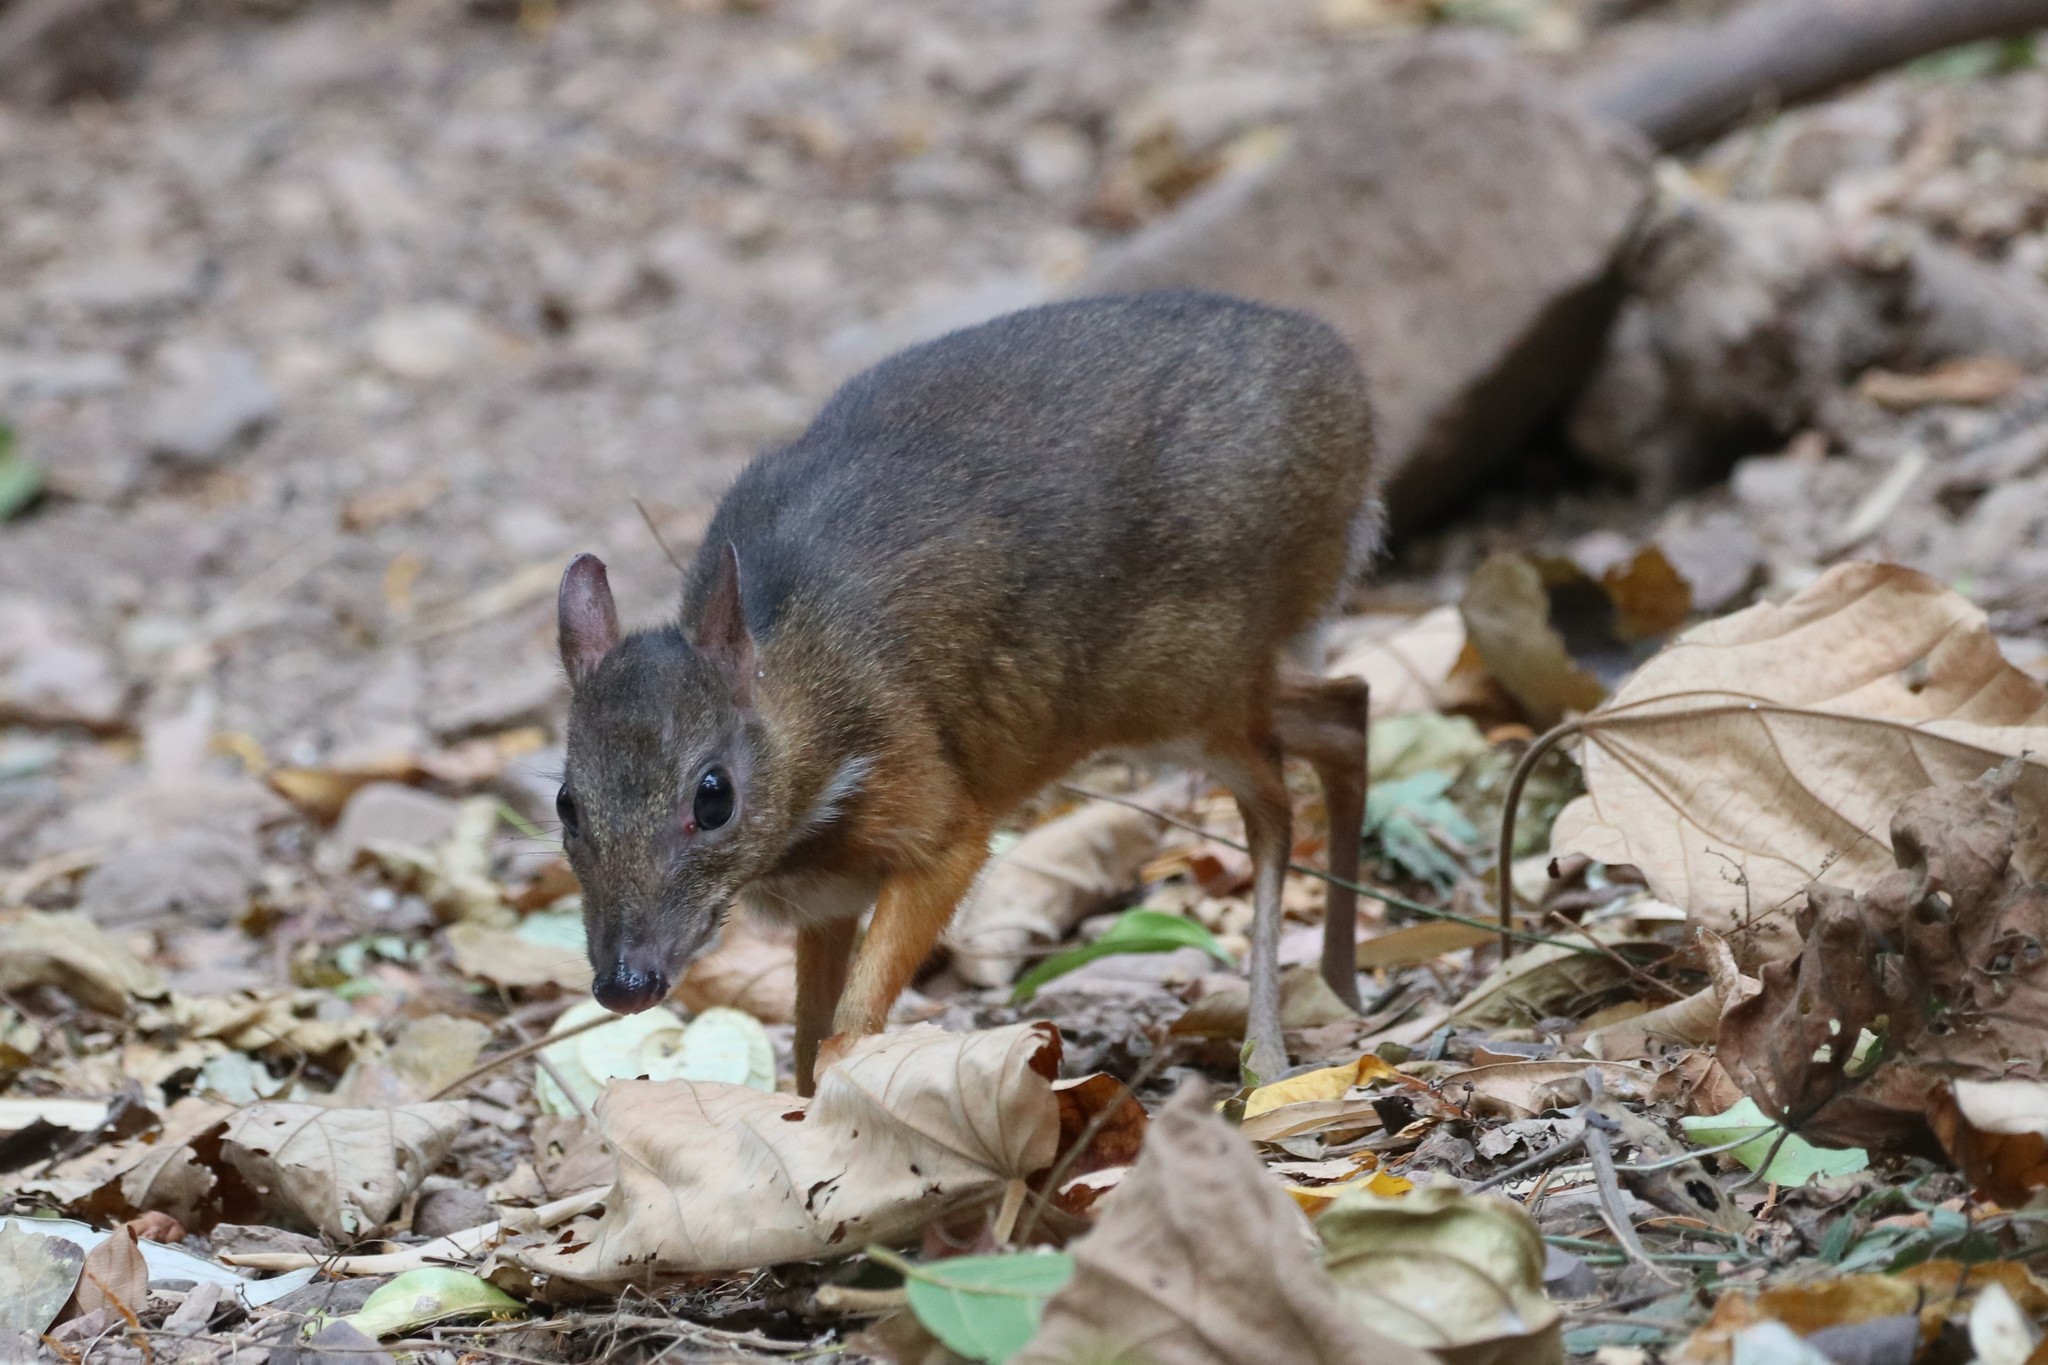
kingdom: Animalia
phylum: Chordata
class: Mammalia
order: Artiodactyla
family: Tragulidae
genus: Tragulus
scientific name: Tragulus kanchil
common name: Lesser mouse-deer
